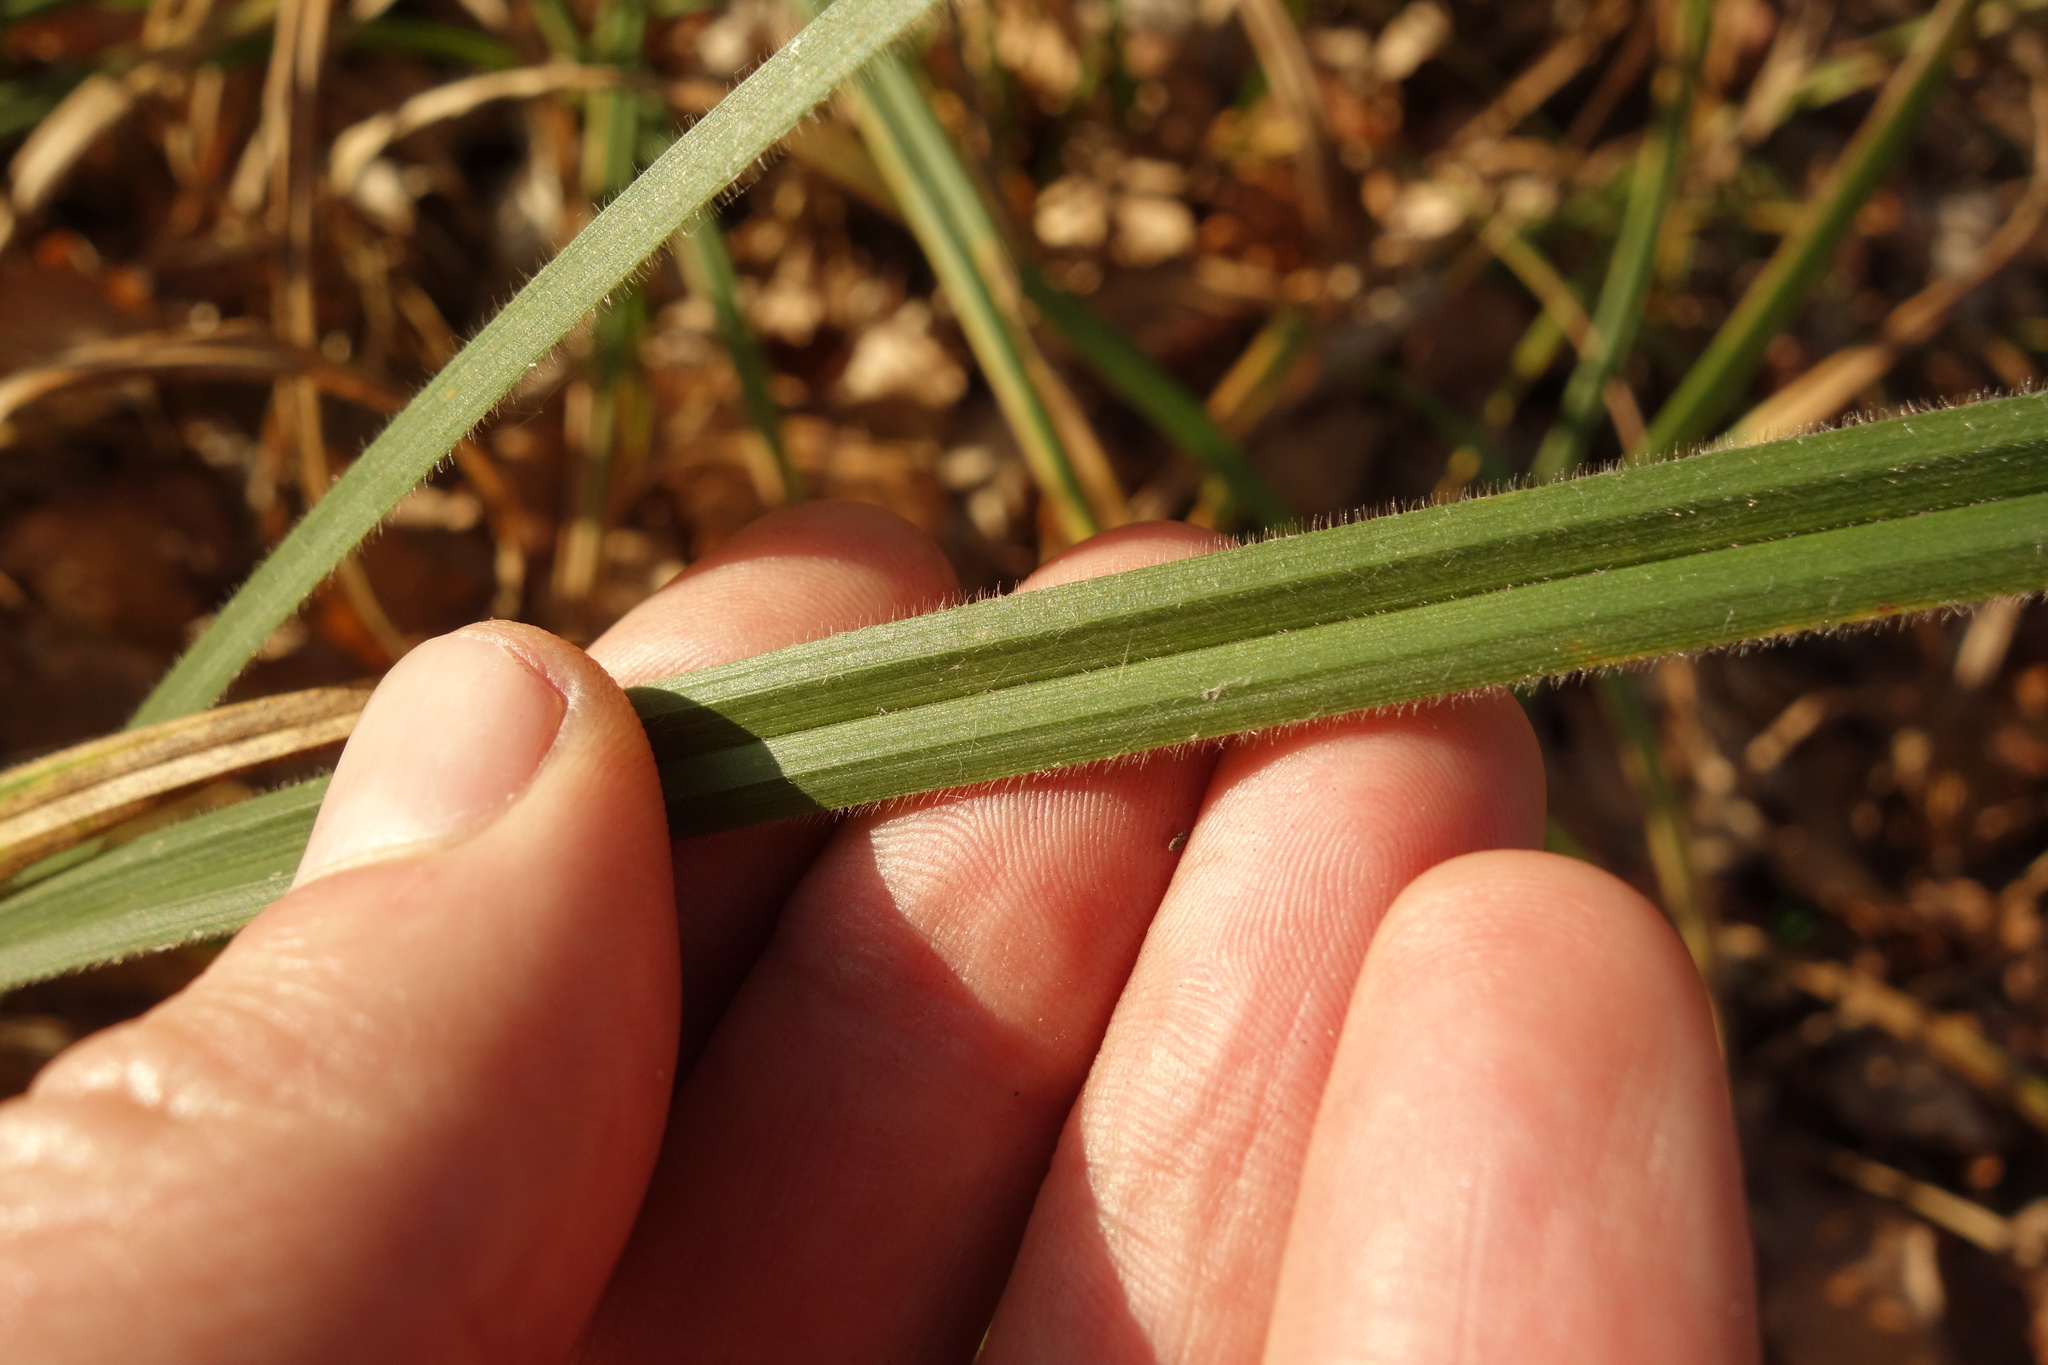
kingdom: Plantae
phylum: Tracheophyta
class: Liliopsida
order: Poales
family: Cyperaceae
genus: Carex
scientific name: Carex pilosa
